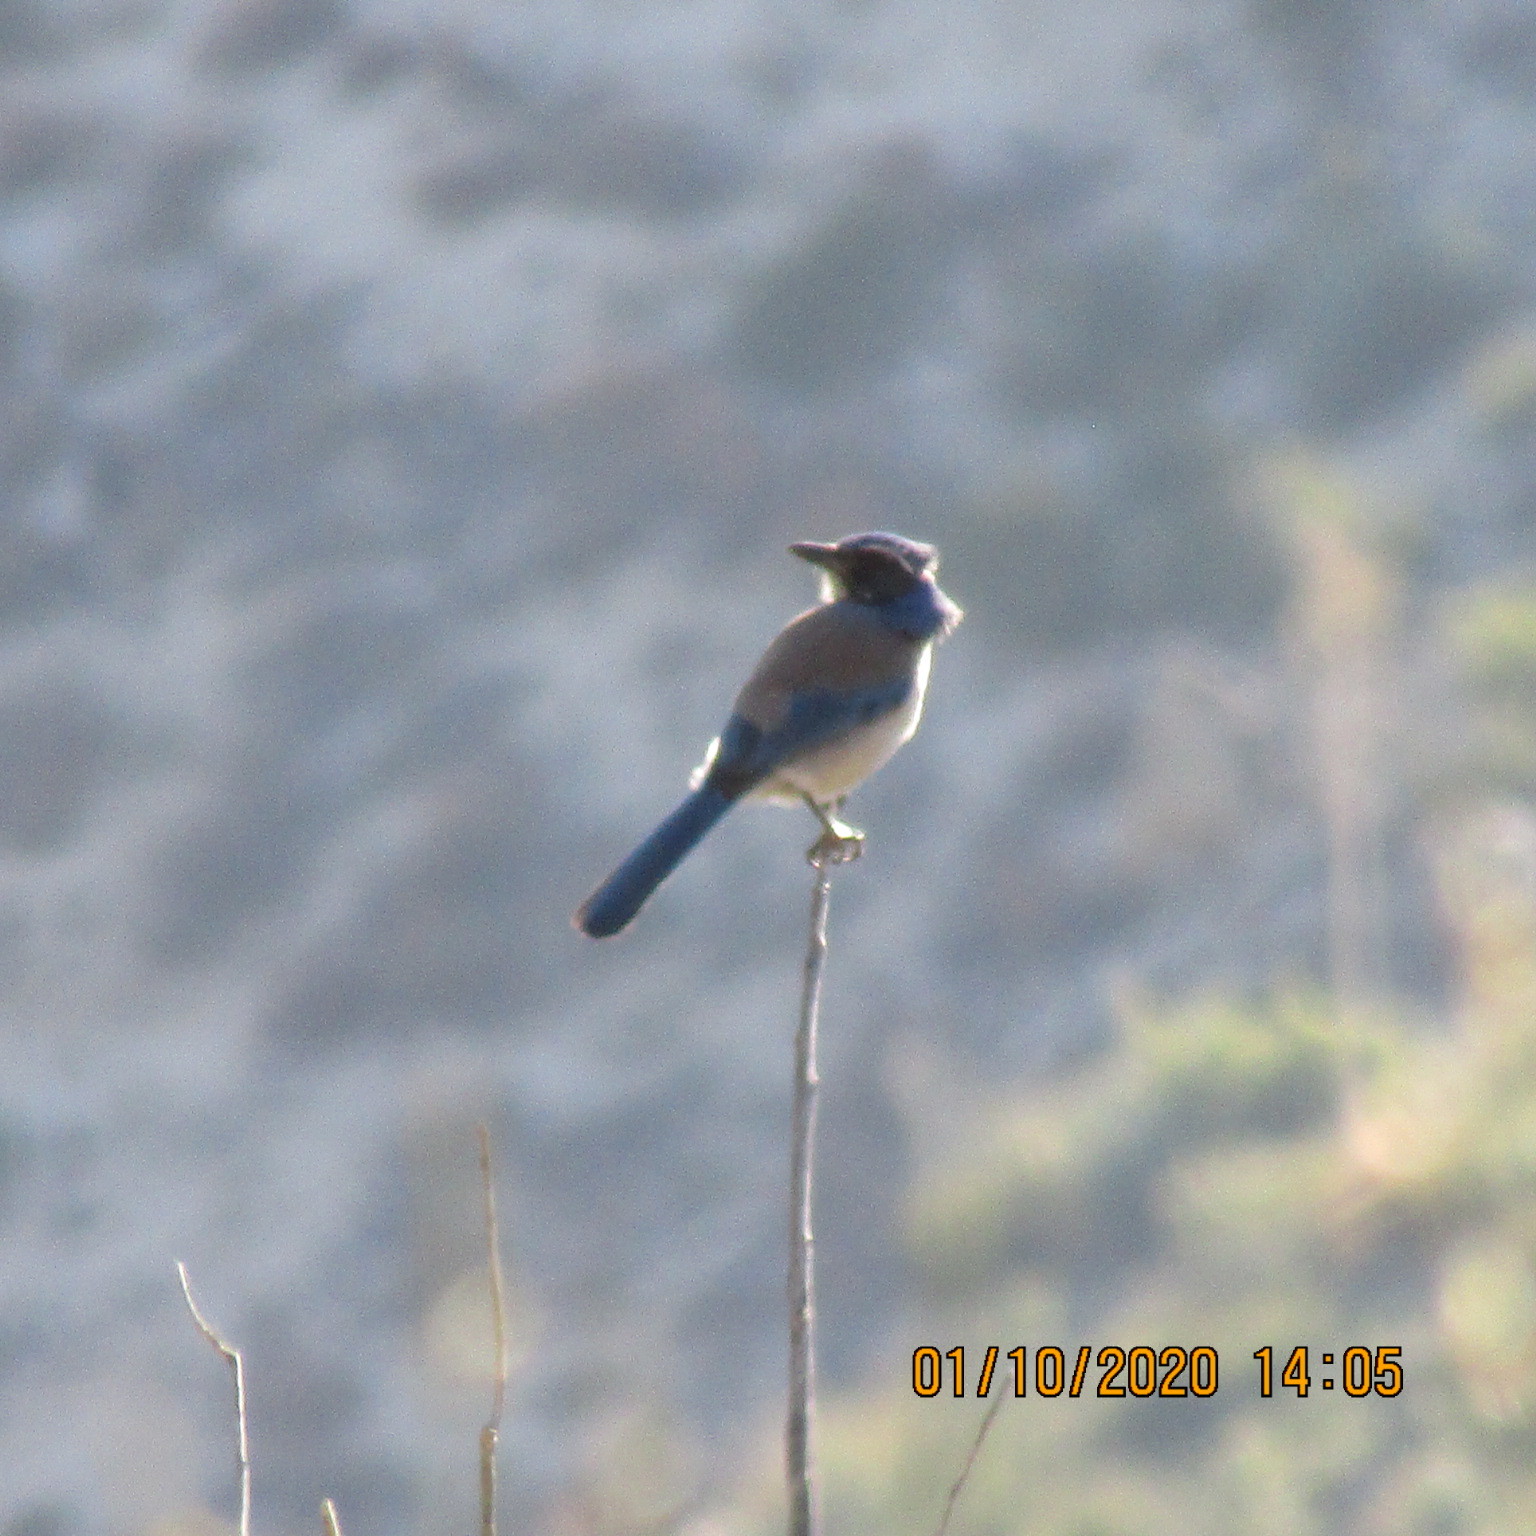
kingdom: Animalia
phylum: Chordata
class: Aves
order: Passeriformes
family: Corvidae
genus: Aphelocoma
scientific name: Aphelocoma californica
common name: California scrub-jay
